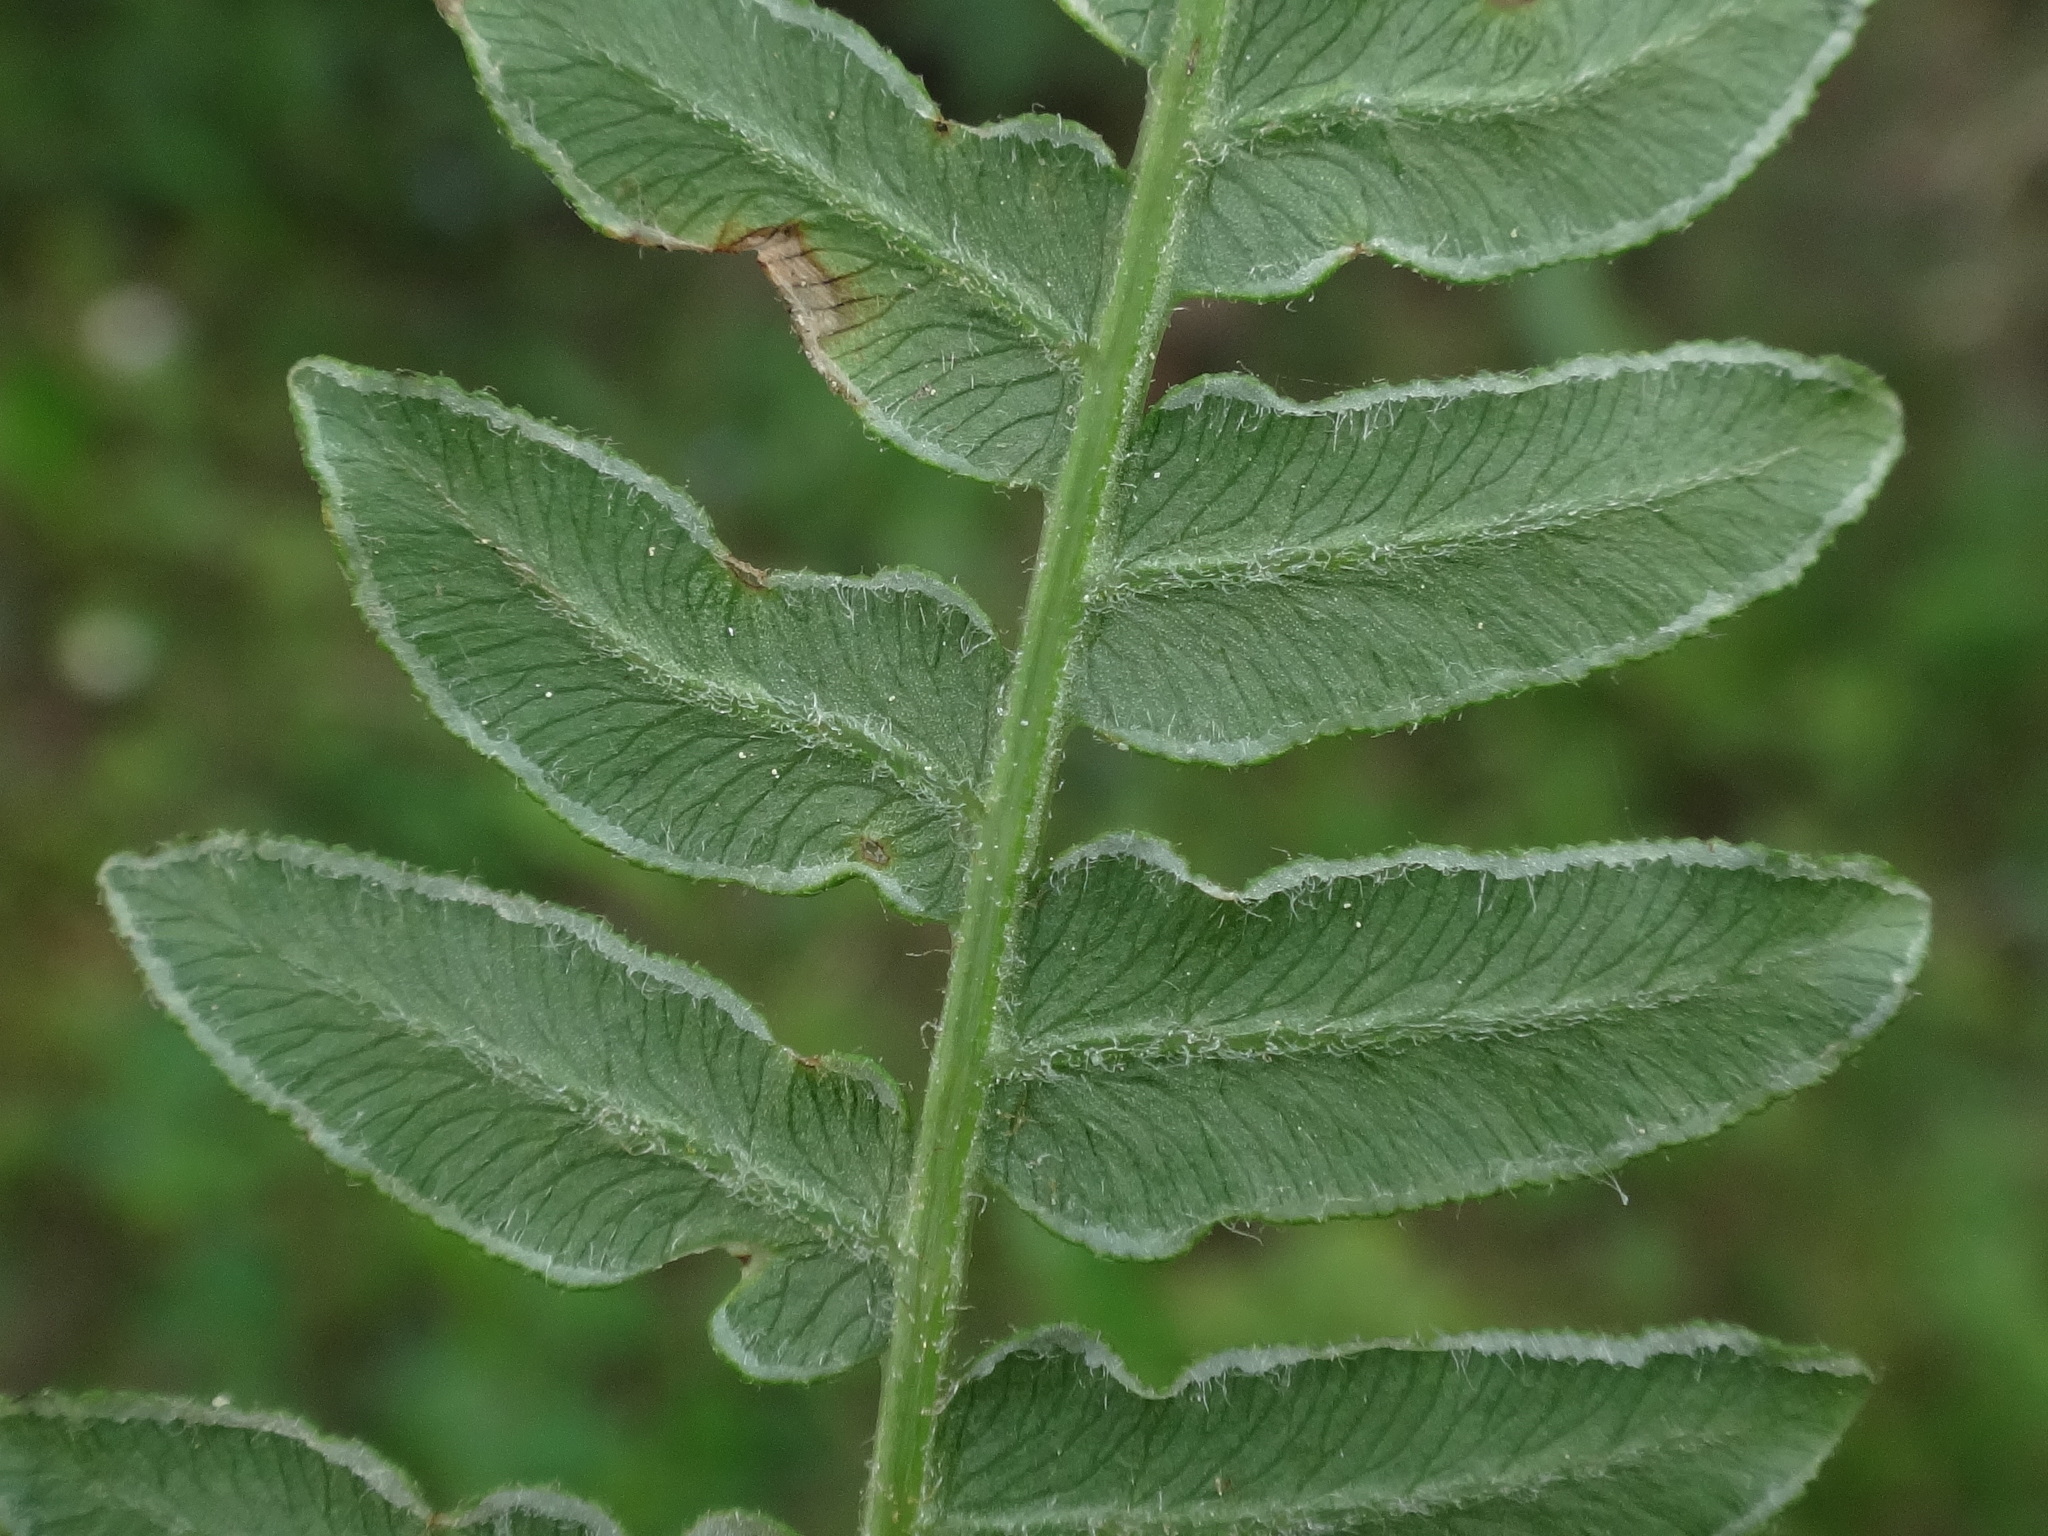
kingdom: Plantae
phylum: Tracheophyta
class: Polypodiopsida
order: Polypodiales
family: Dennstaedtiaceae
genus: Pteridium
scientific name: Pteridium aquilinum
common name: Bracken
